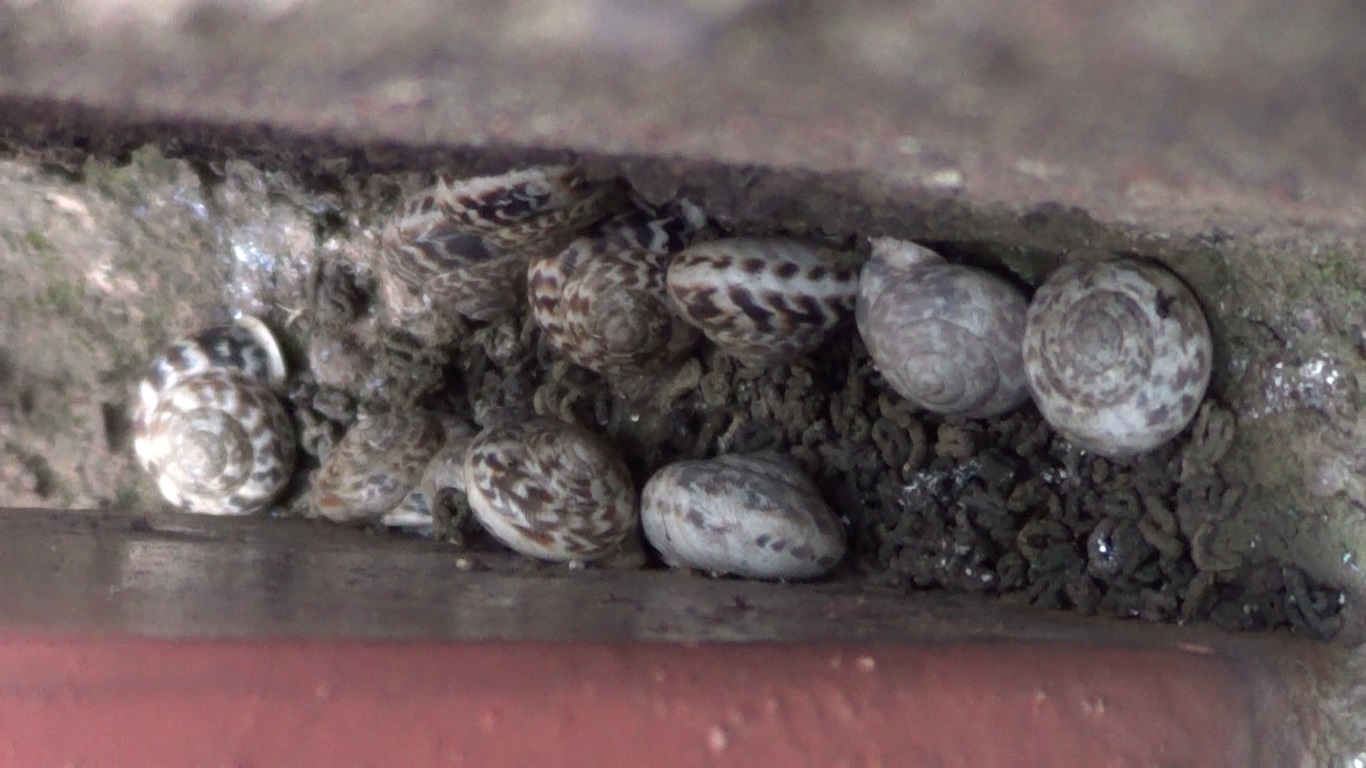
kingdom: Animalia
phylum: Mollusca
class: Gastropoda
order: Stylommatophora
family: Helicidae
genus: Marmorana
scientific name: Marmorana muralis
